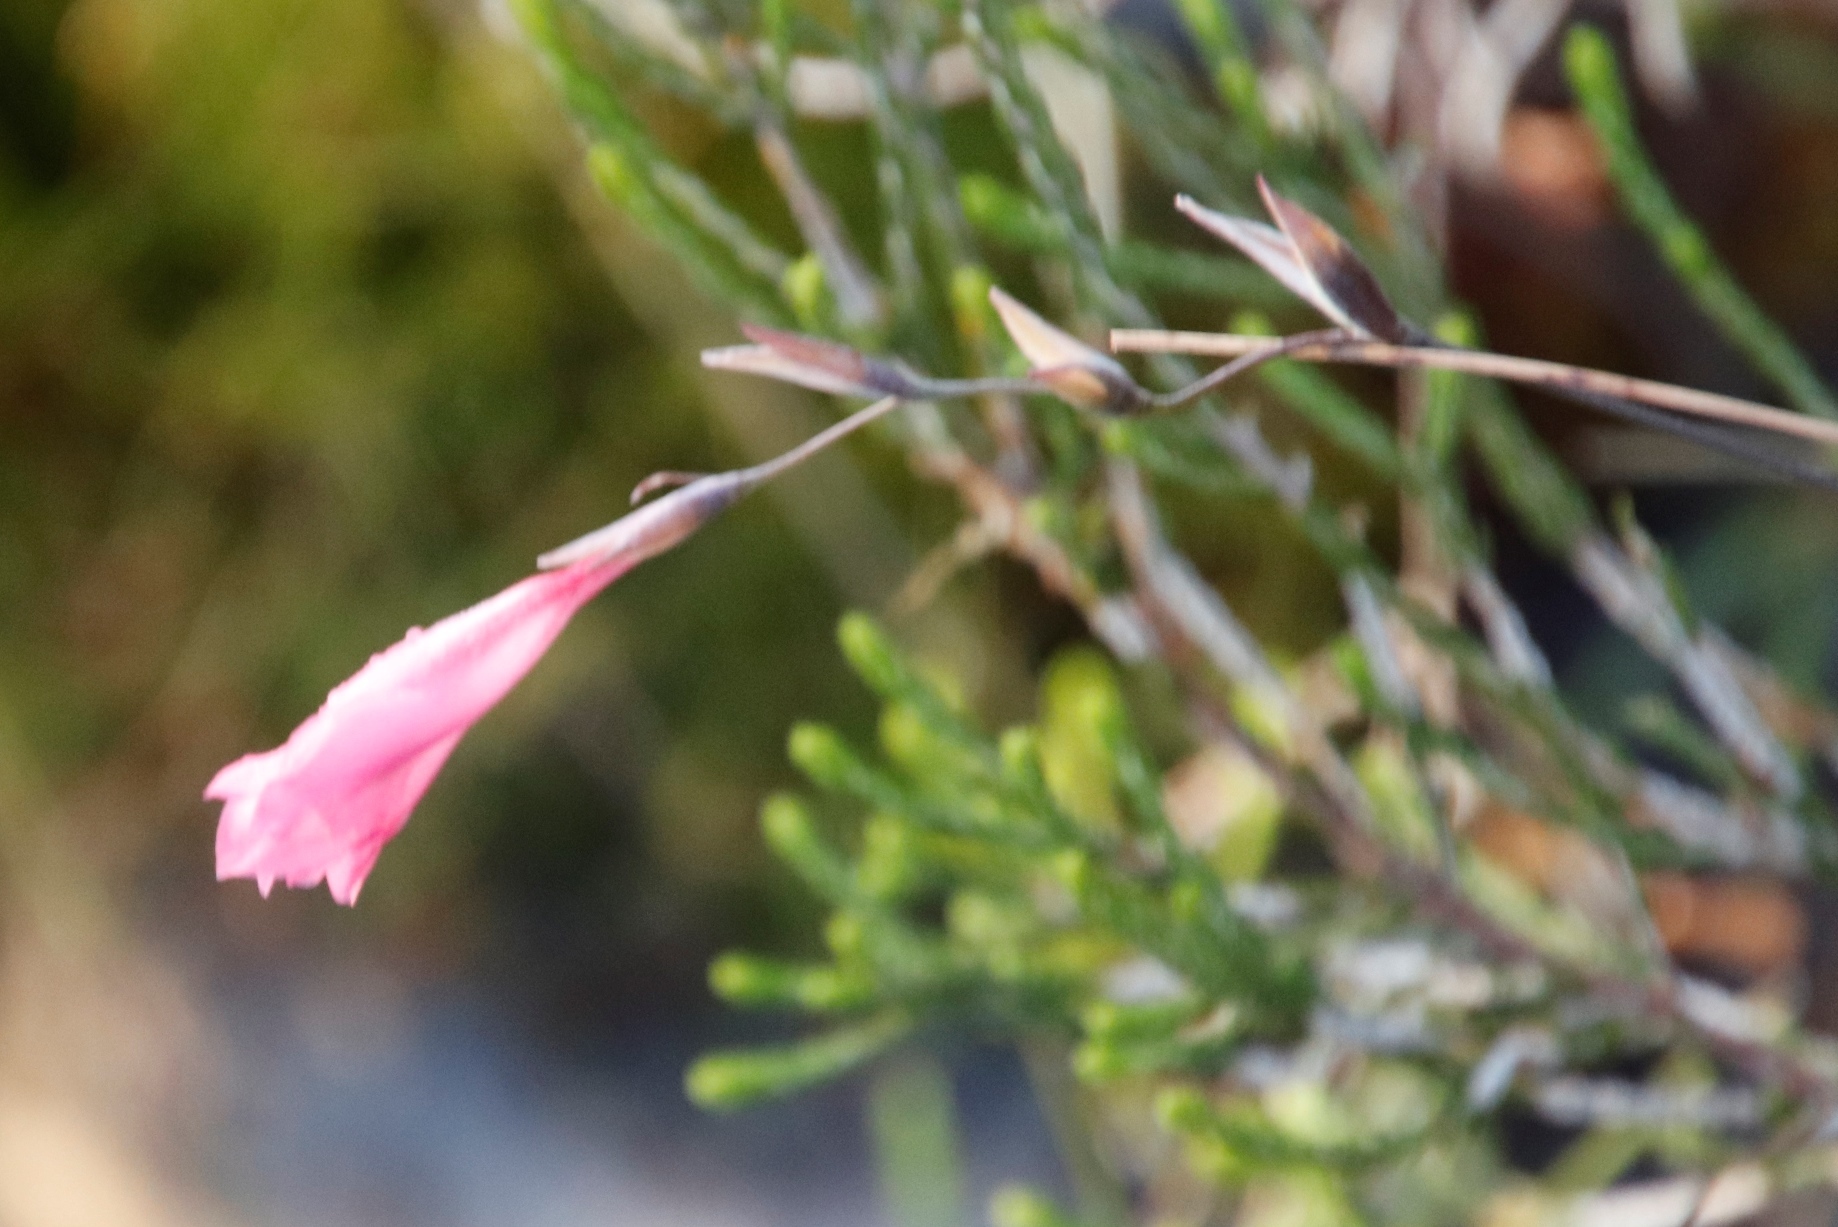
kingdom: Plantae
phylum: Tracheophyta
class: Liliopsida
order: Asparagales
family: Iridaceae
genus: Gladiolus
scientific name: Gladiolus brevifolius
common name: March pypie
